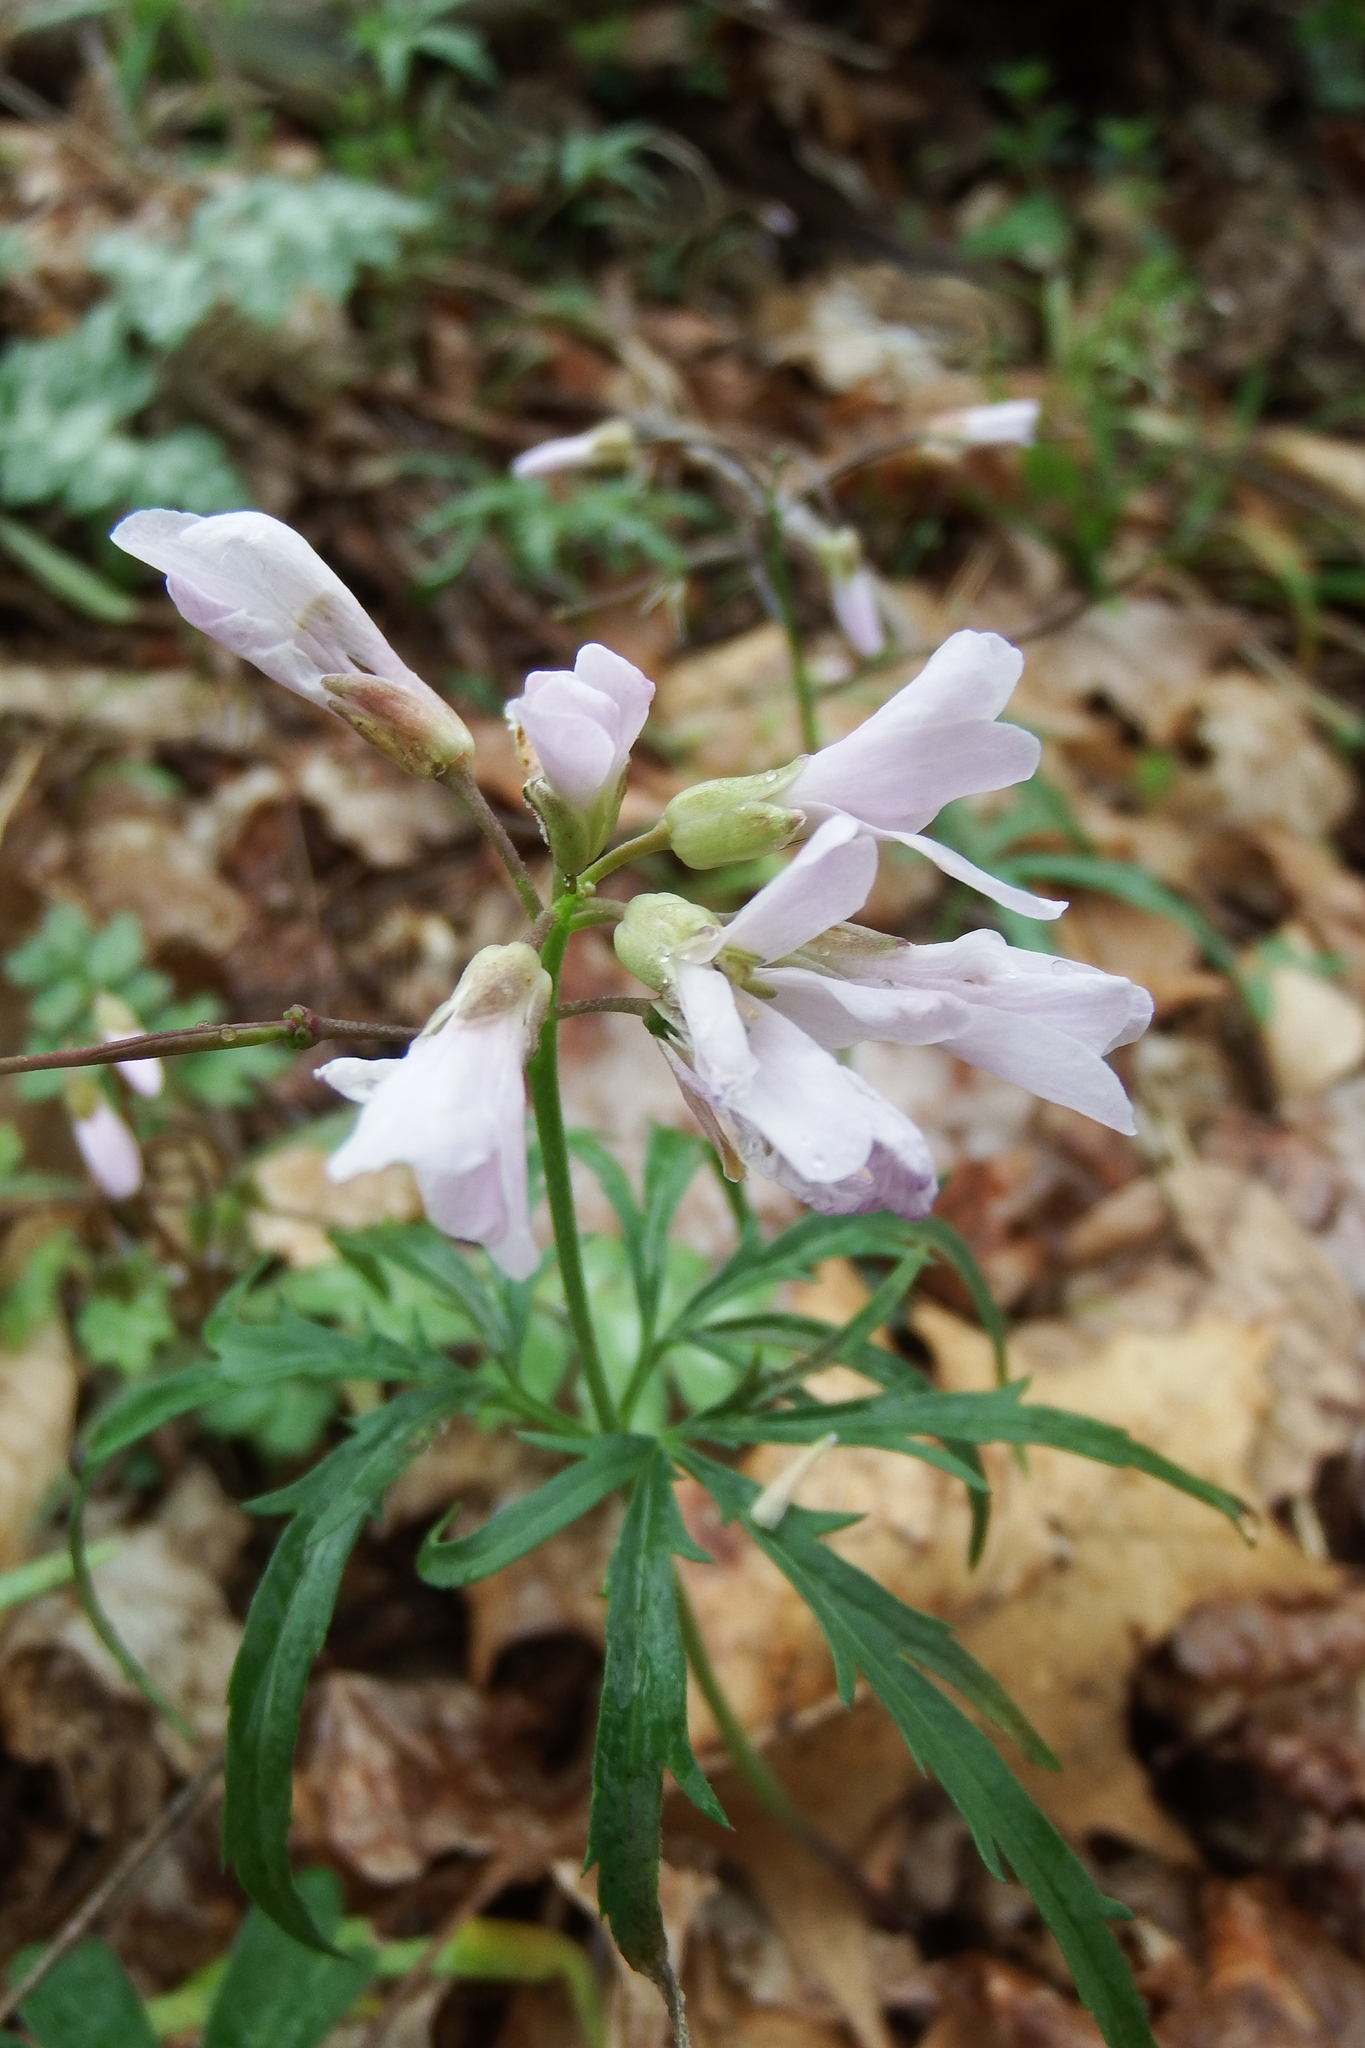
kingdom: Plantae
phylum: Tracheophyta
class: Magnoliopsida
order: Brassicales
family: Brassicaceae
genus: Cardamine
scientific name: Cardamine concatenata
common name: Cut-leaf toothcup
